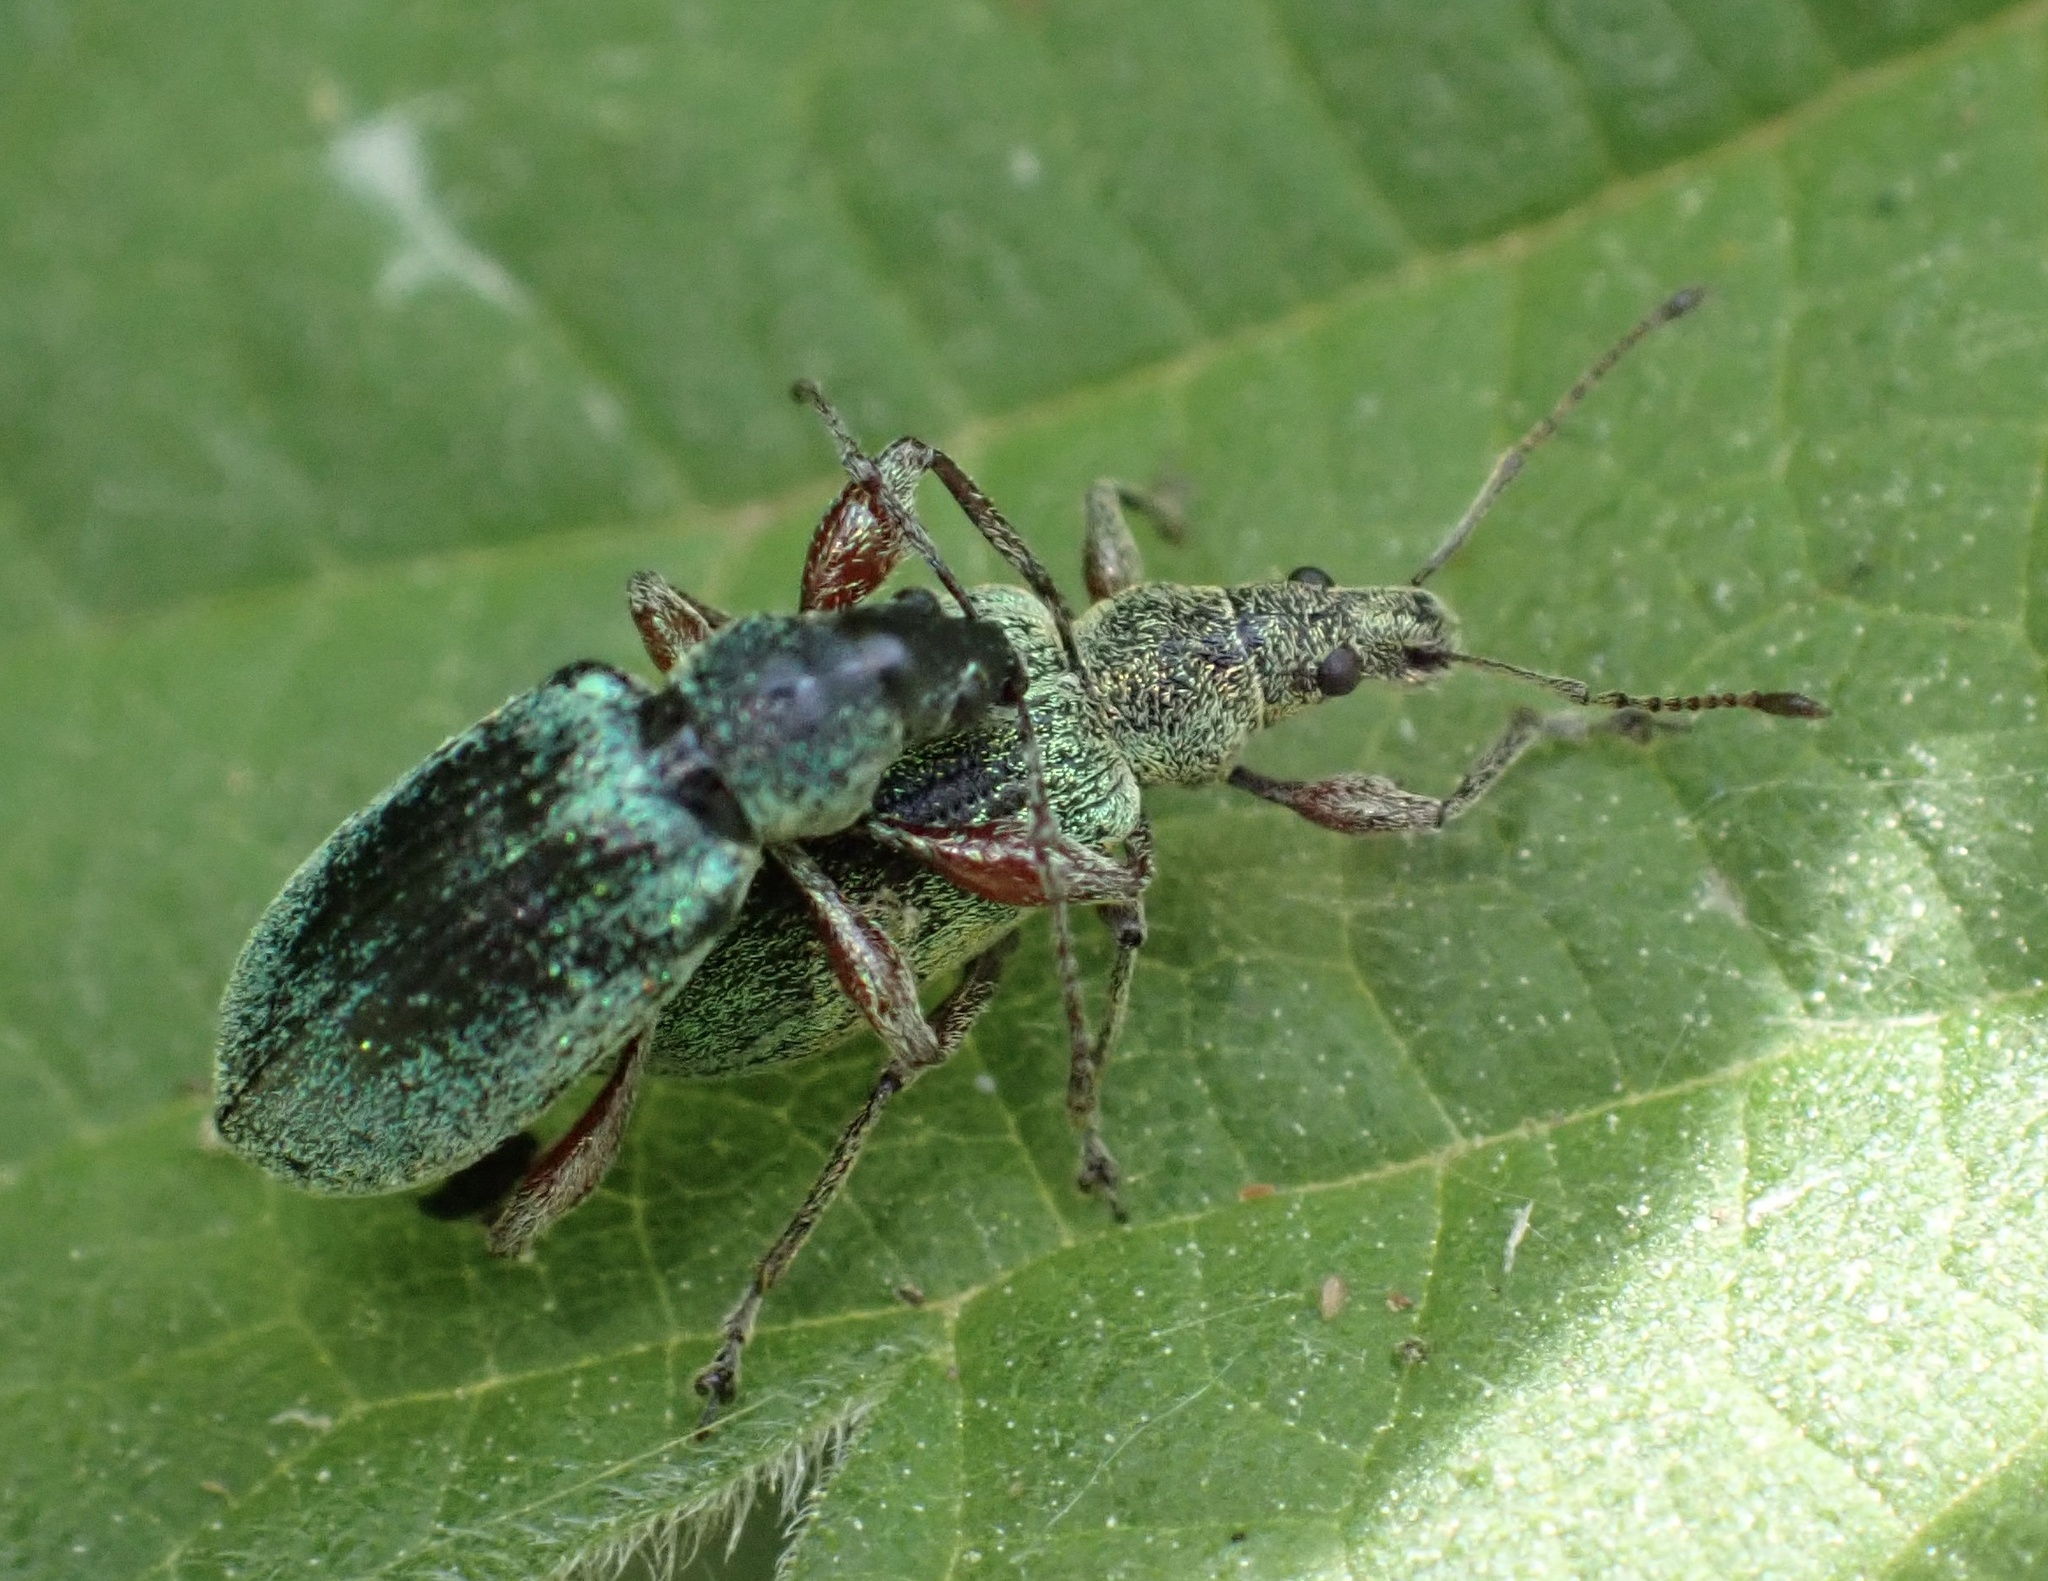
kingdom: Animalia
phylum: Arthropoda
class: Insecta
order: Coleoptera
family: Curculionidae
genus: Phyllobius
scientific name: Phyllobius pomaceus
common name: Green nettle weevil
